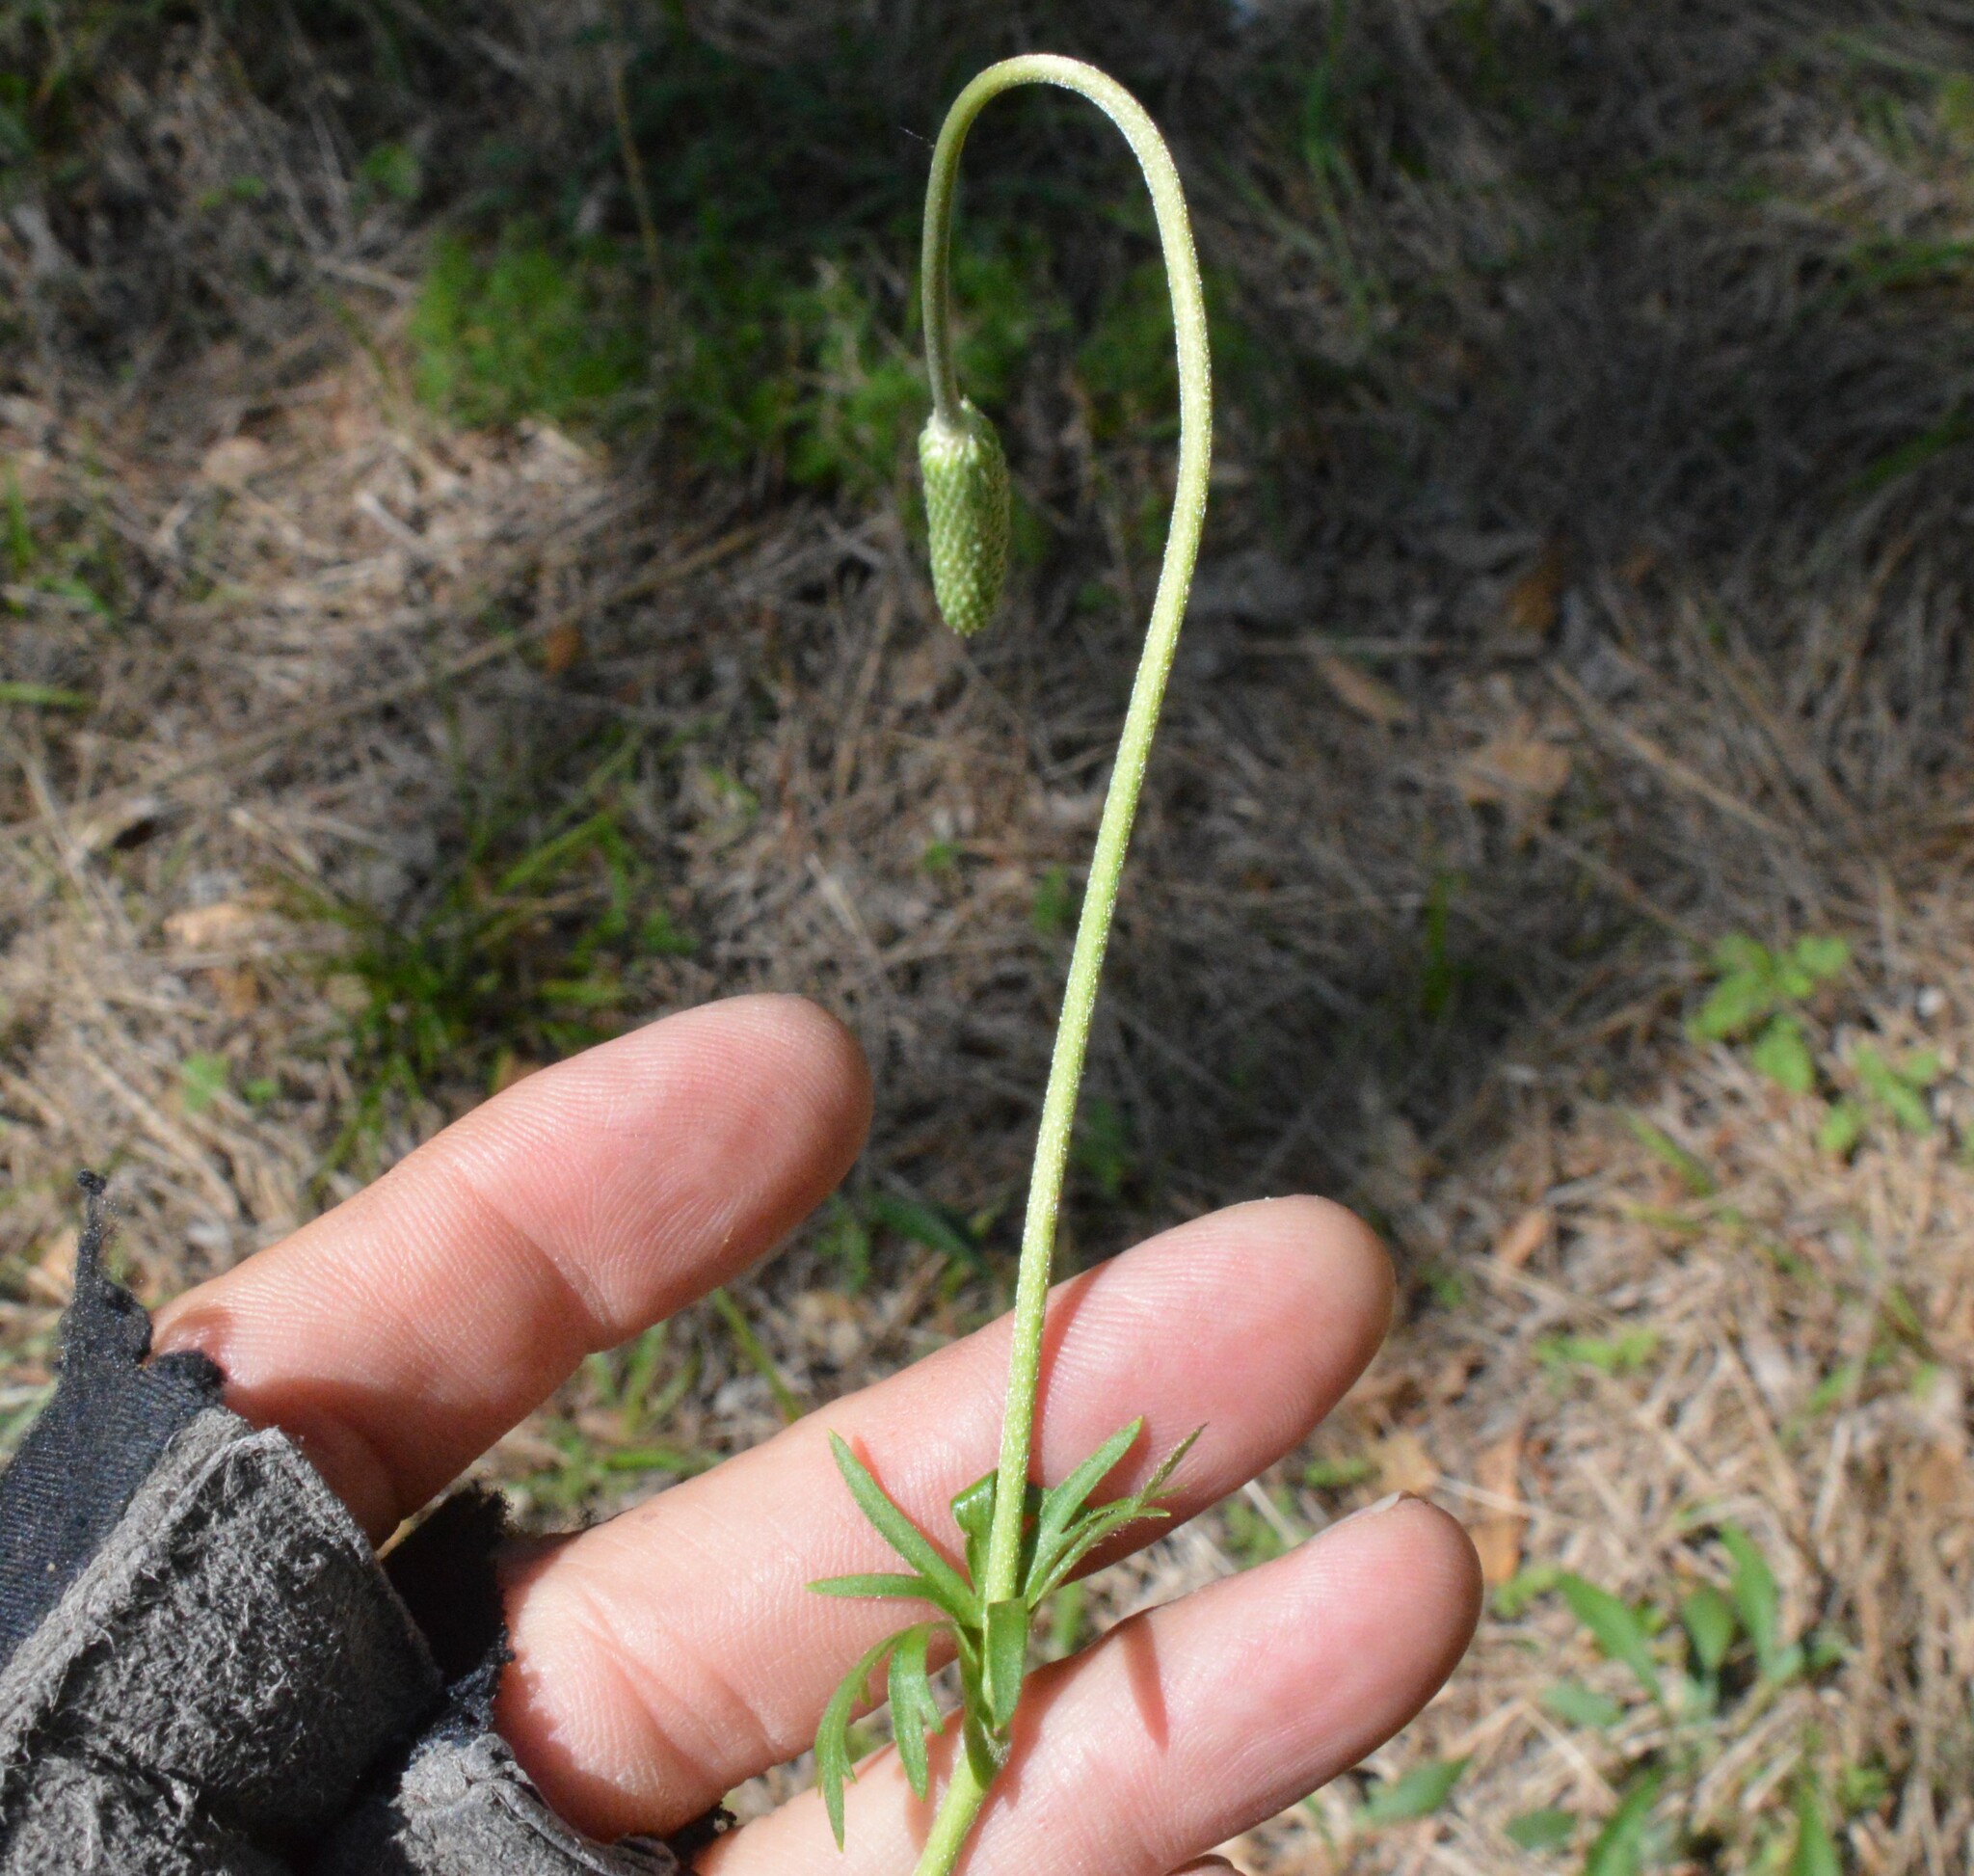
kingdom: Plantae
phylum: Tracheophyta
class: Magnoliopsida
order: Ranunculales
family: Ranunculaceae
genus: Anemone
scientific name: Anemone berlandieri
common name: Ten-petal anemone
